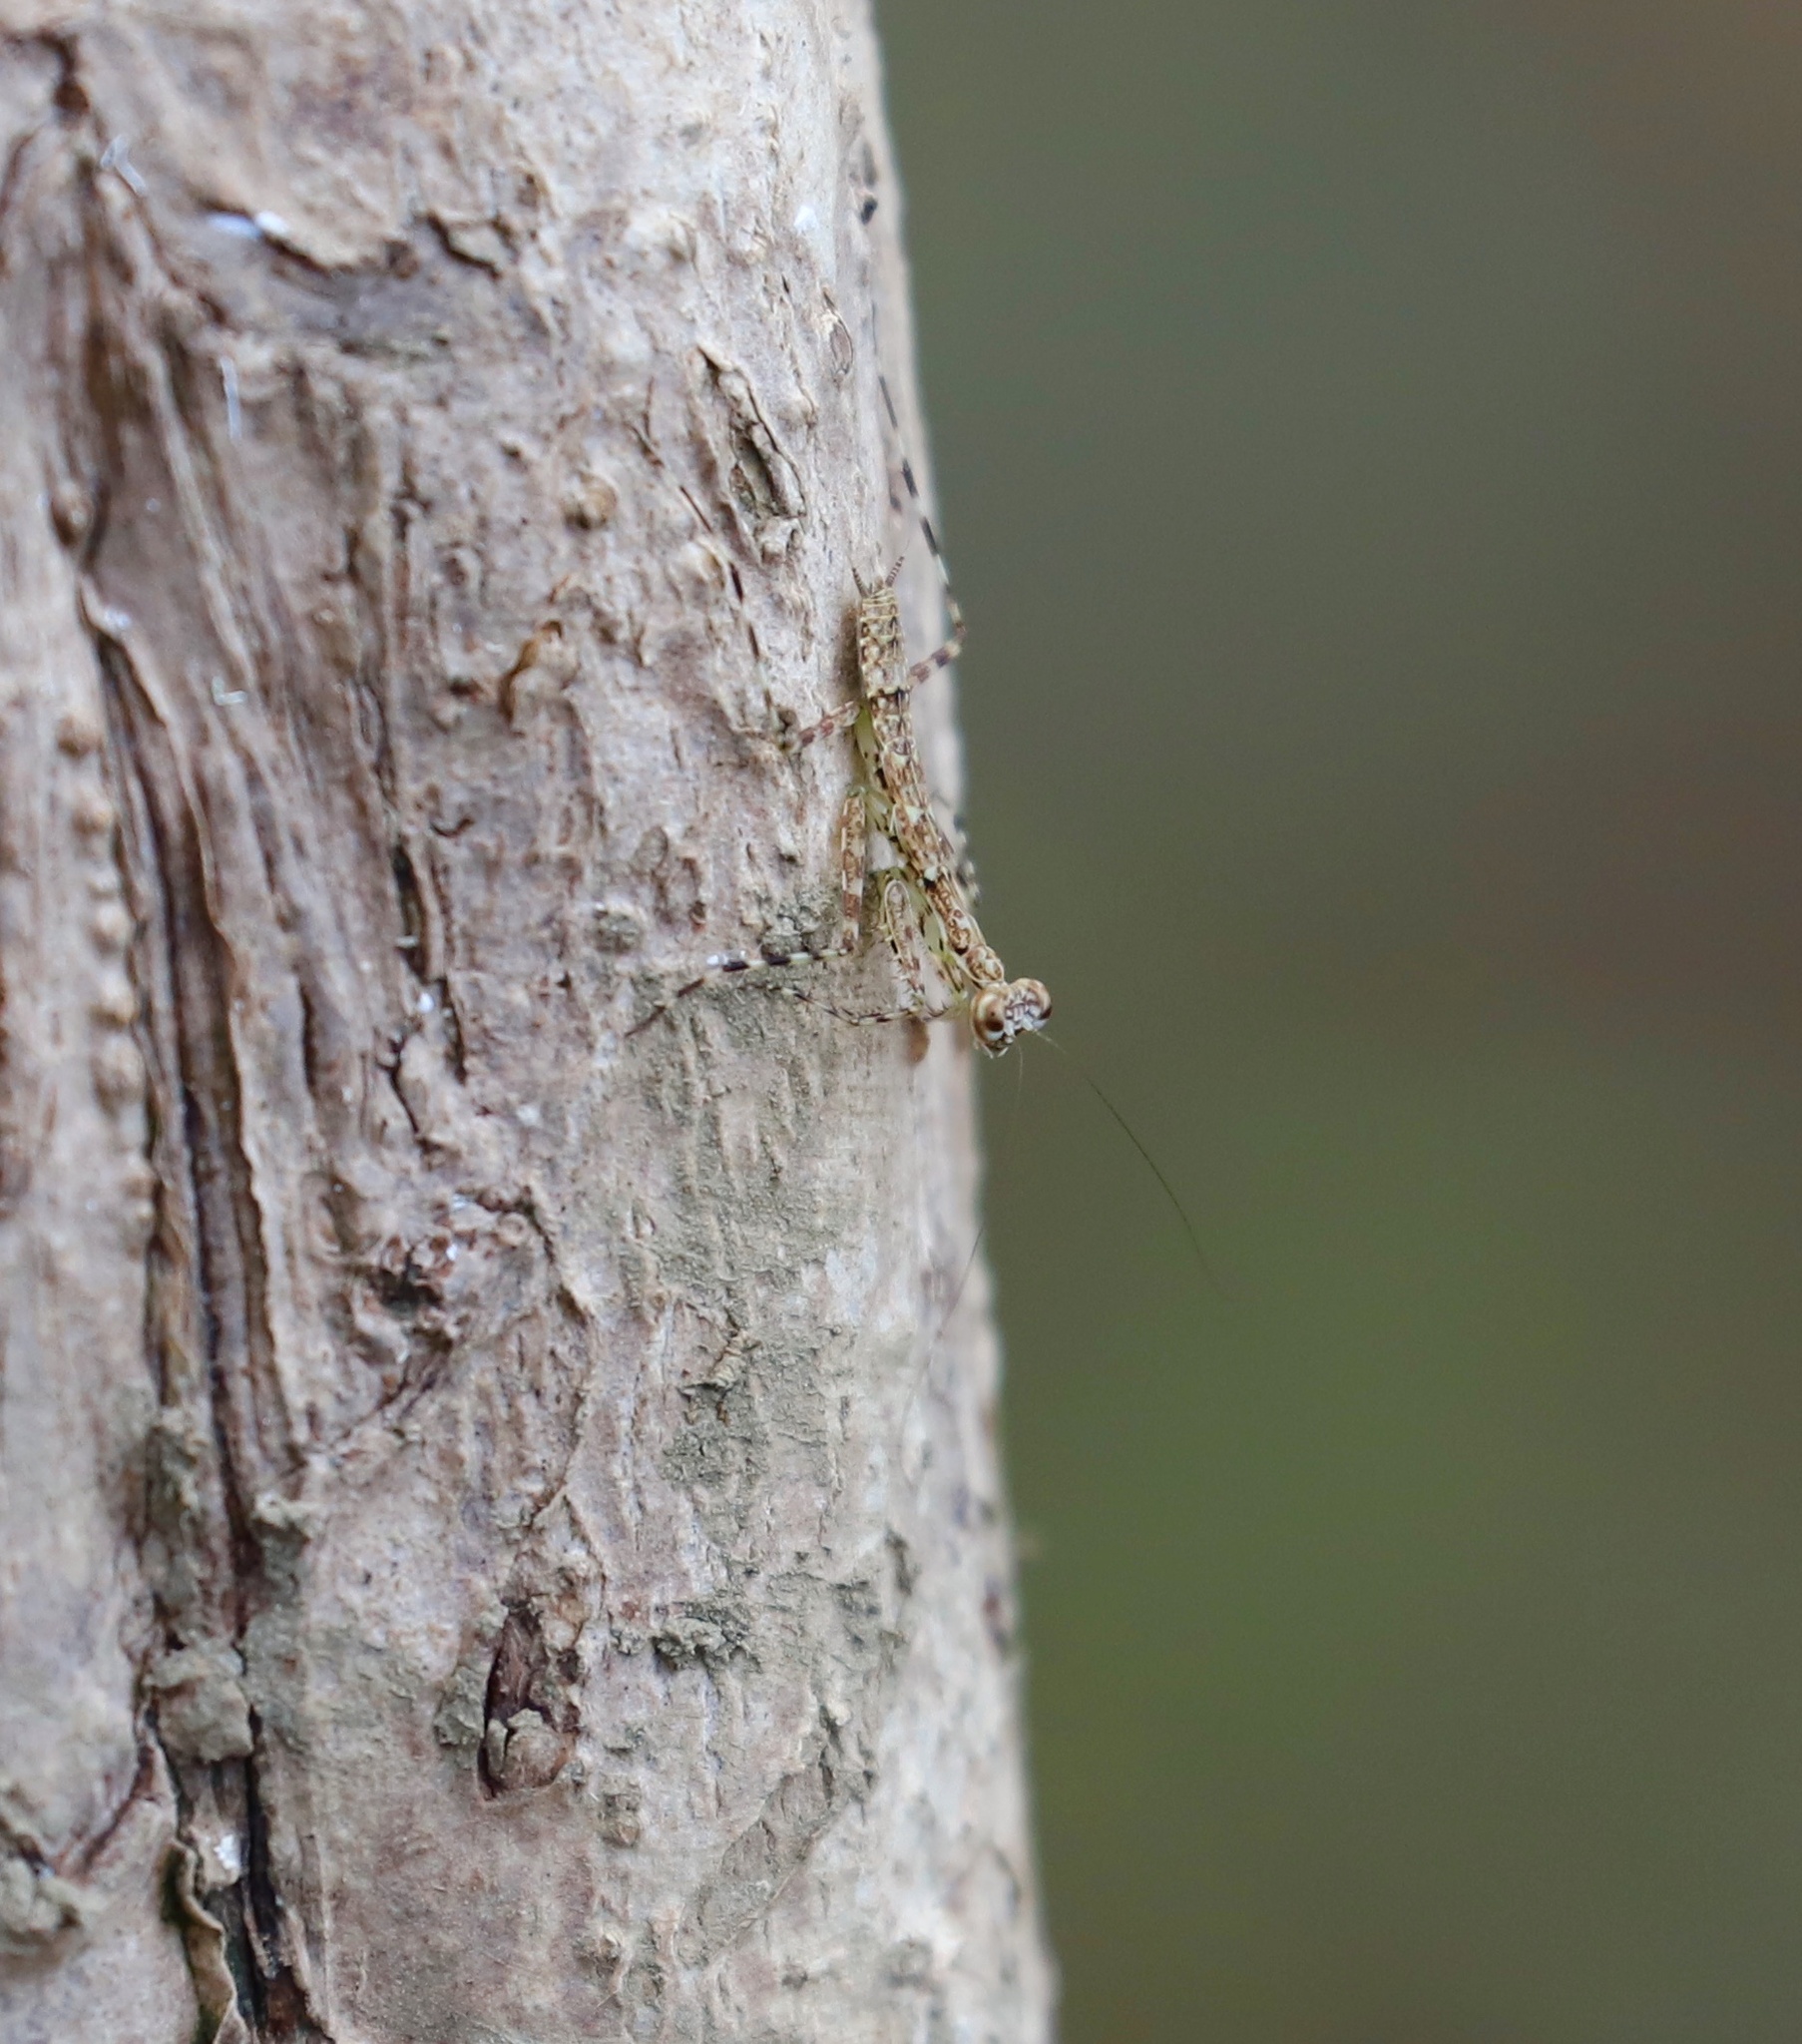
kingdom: Animalia
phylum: Arthropoda
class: Insecta
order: Mantodea
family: Liturgusidae
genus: Liturgusa
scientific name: Liturgusa maya
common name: Mantis
